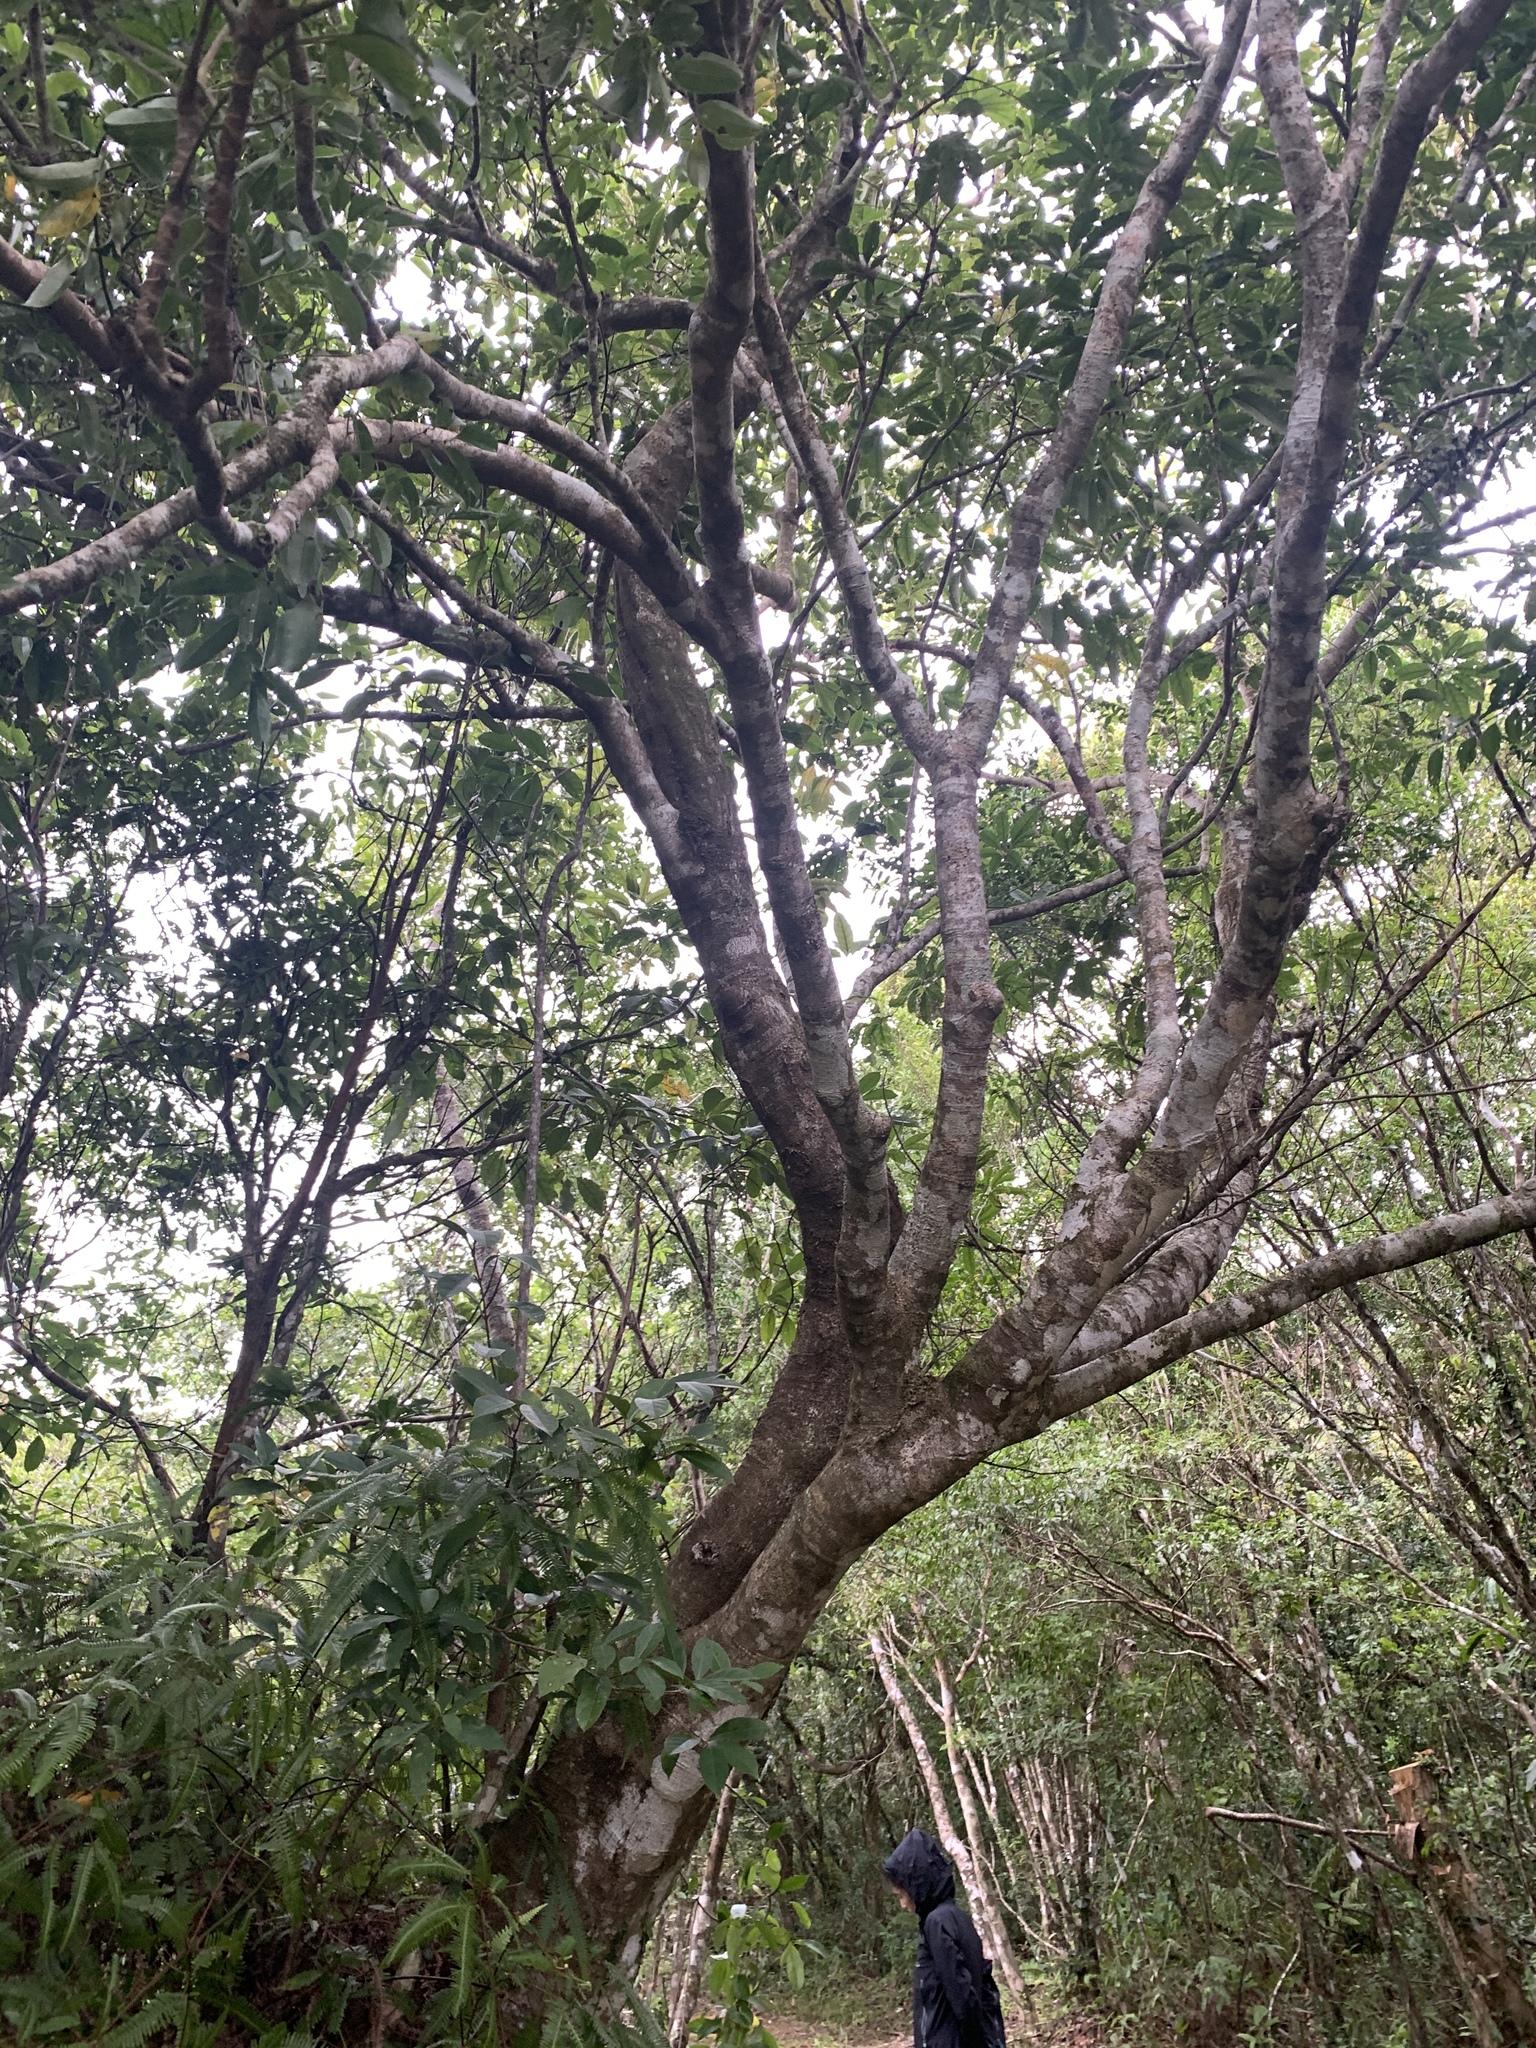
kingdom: Plantae
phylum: Tracheophyta
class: Magnoliopsida
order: Apiales
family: Araliaceae
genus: Heptapleurum
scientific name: Heptapleurum heptaphyllum
